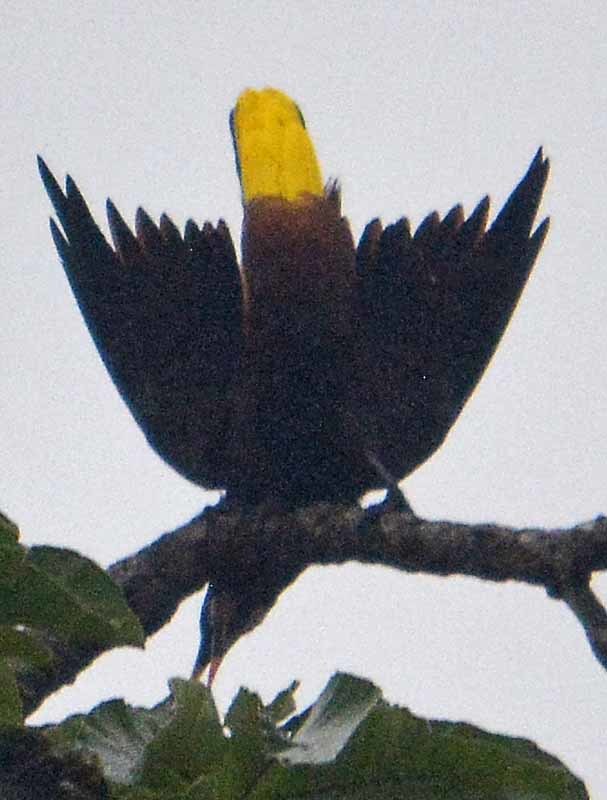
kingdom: Animalia
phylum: Chordata
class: Aves
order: Passeriformes
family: Icteridae
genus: Psarocolius
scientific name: Psarocolius montezuma
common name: Montezuma oropendola
